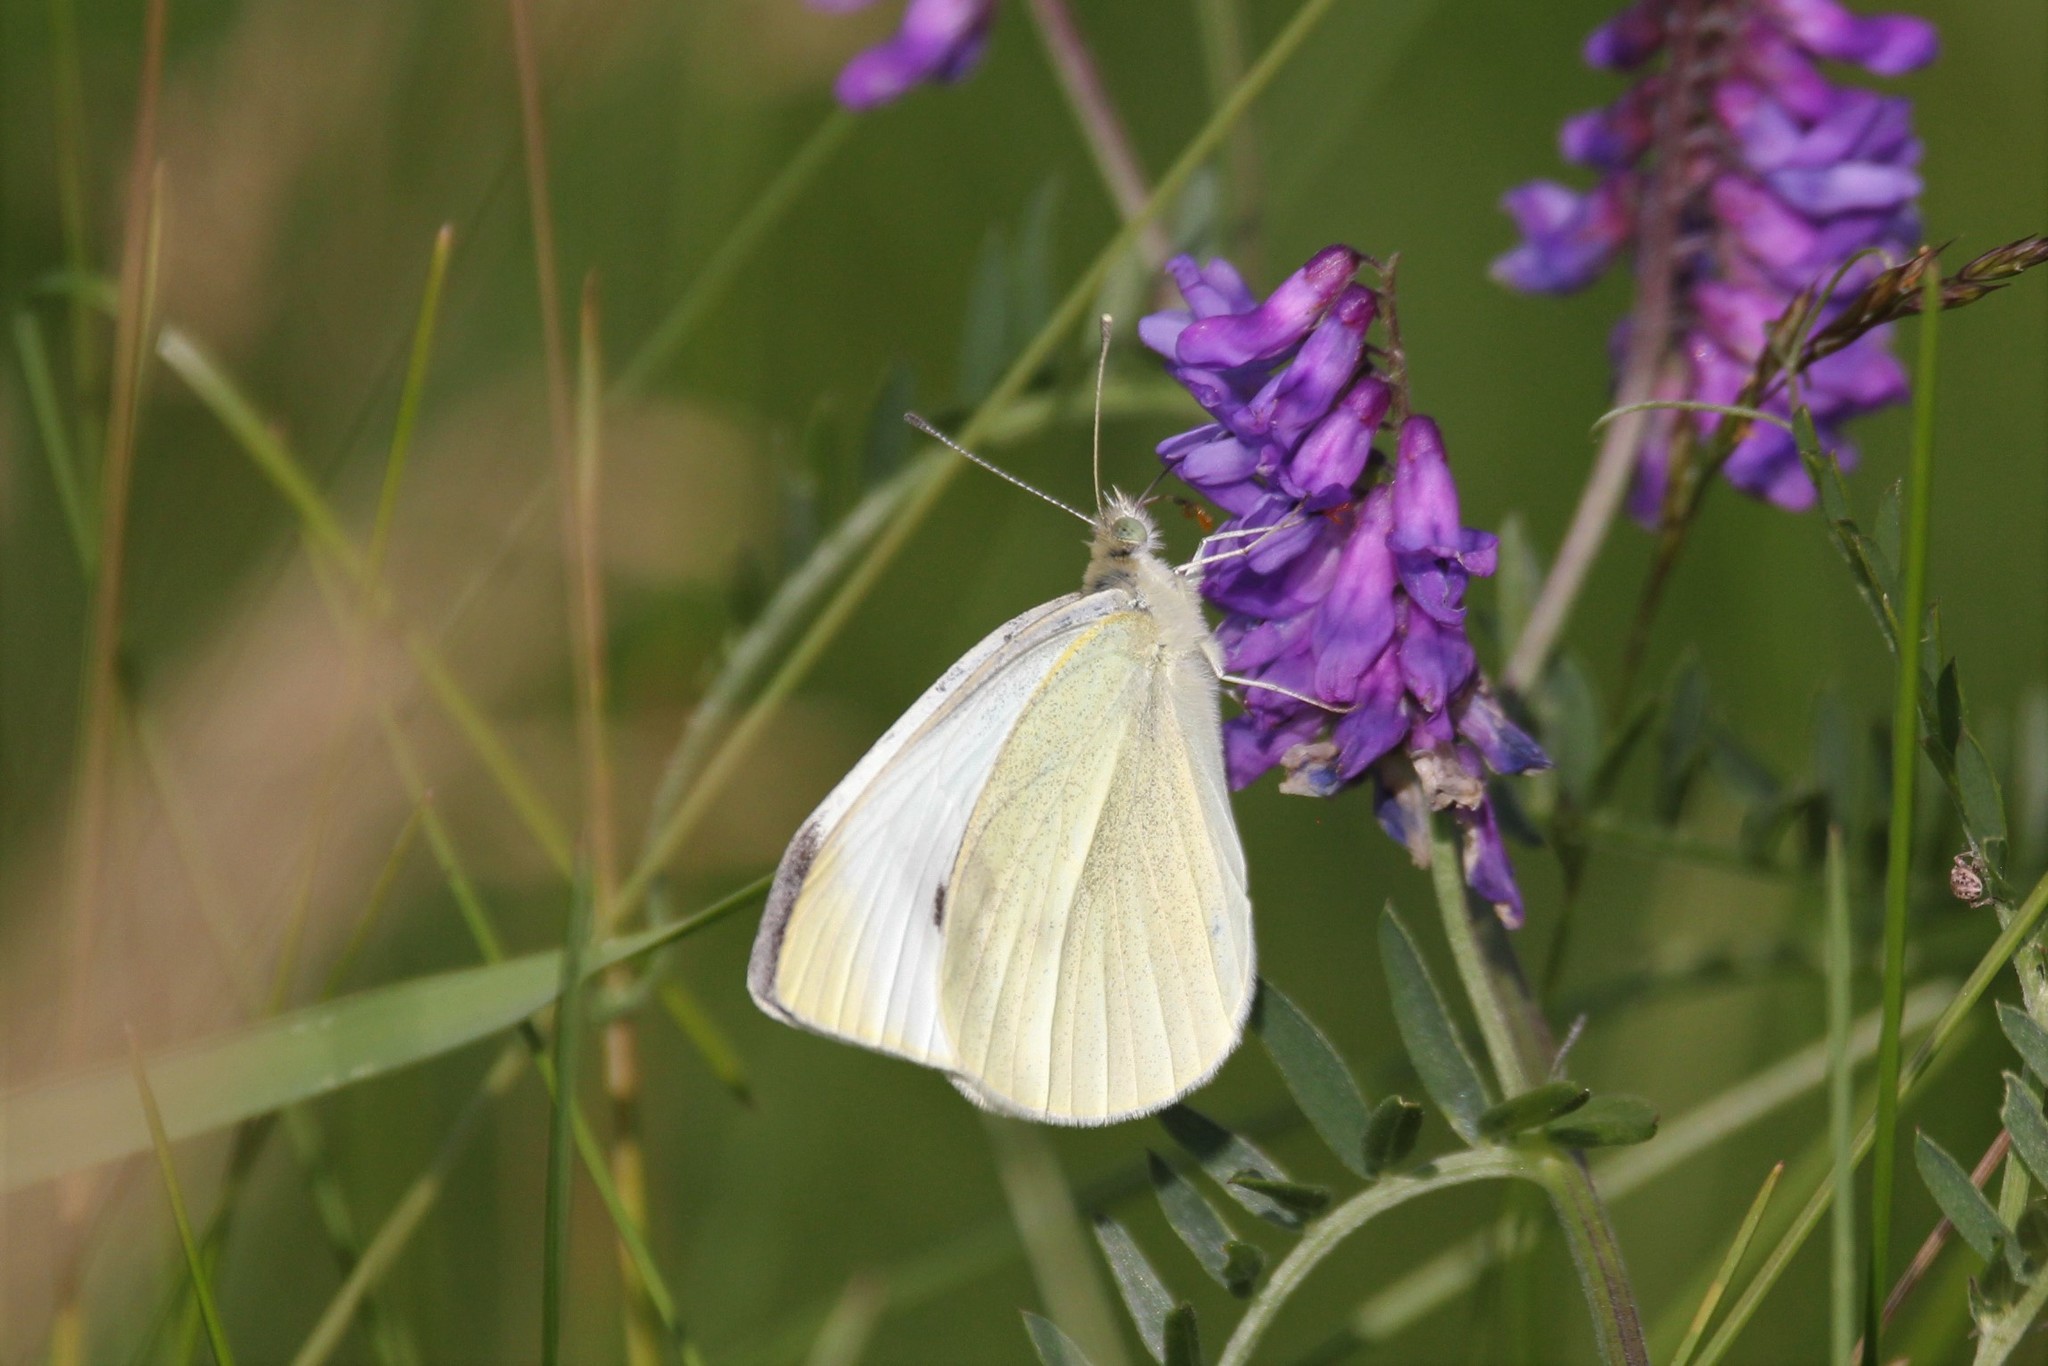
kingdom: Animalia
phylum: Arthropoda
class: Insecta
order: Lepidoptera
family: Pieridae
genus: Pieris
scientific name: Pieris rapae
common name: Small white
